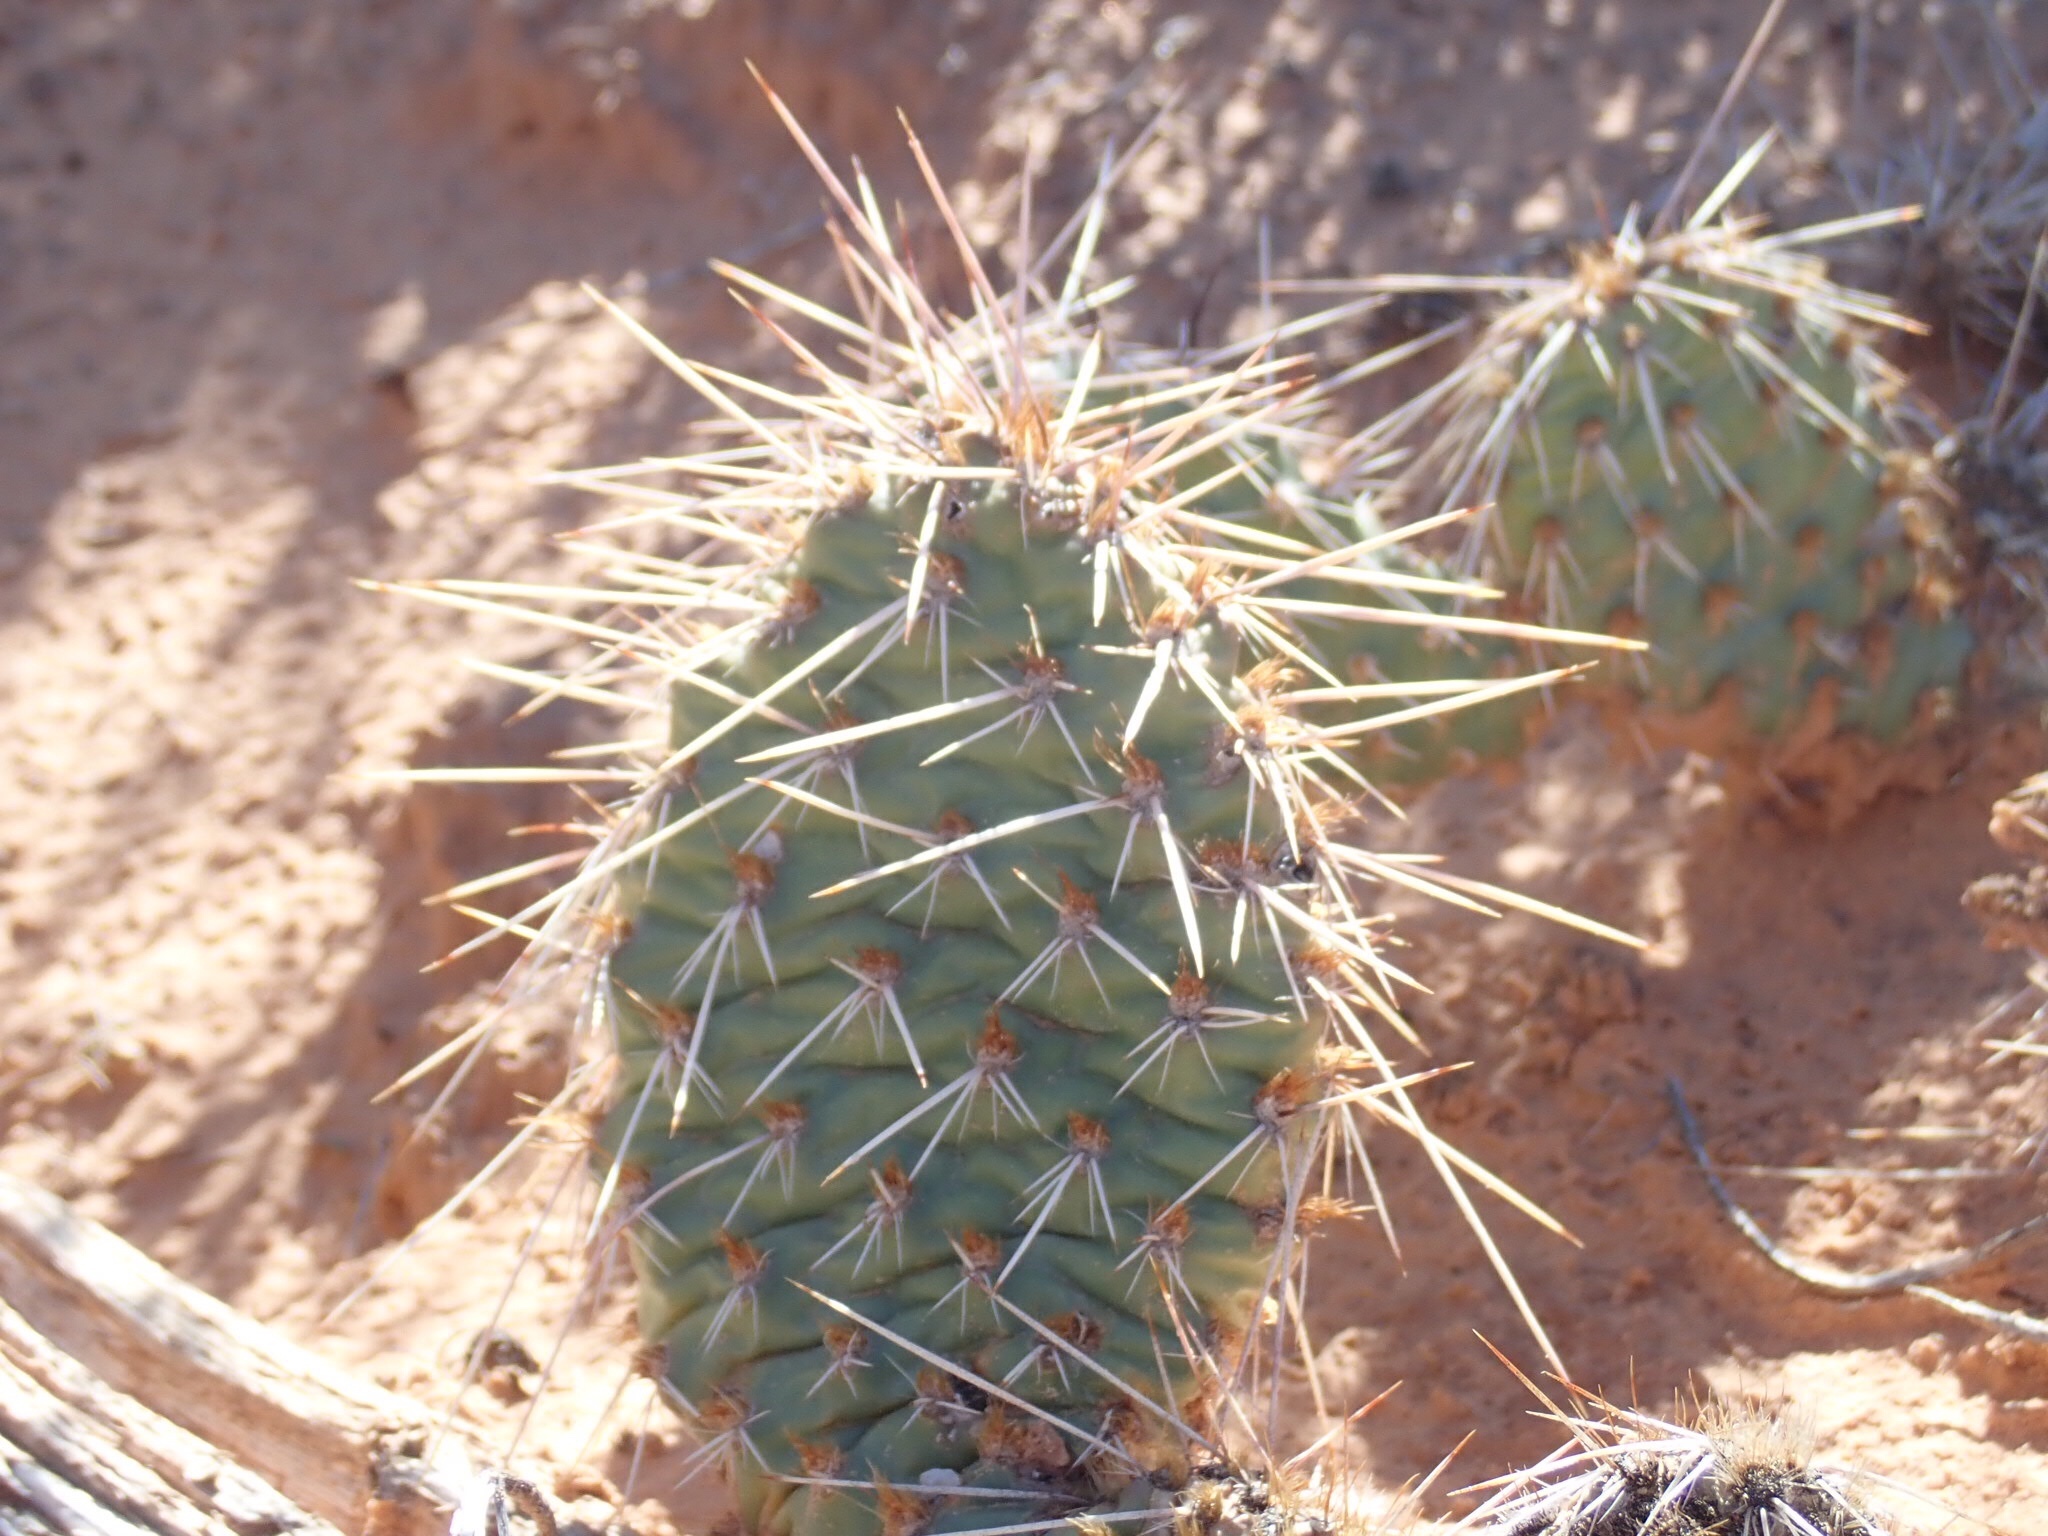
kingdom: Plantae
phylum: Tracheophyta
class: Magnoliopsida
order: Caryophyllales
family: Cactaceae
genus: Opuntia
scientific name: Opuntia polyacantha
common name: Plains prickly-pear
